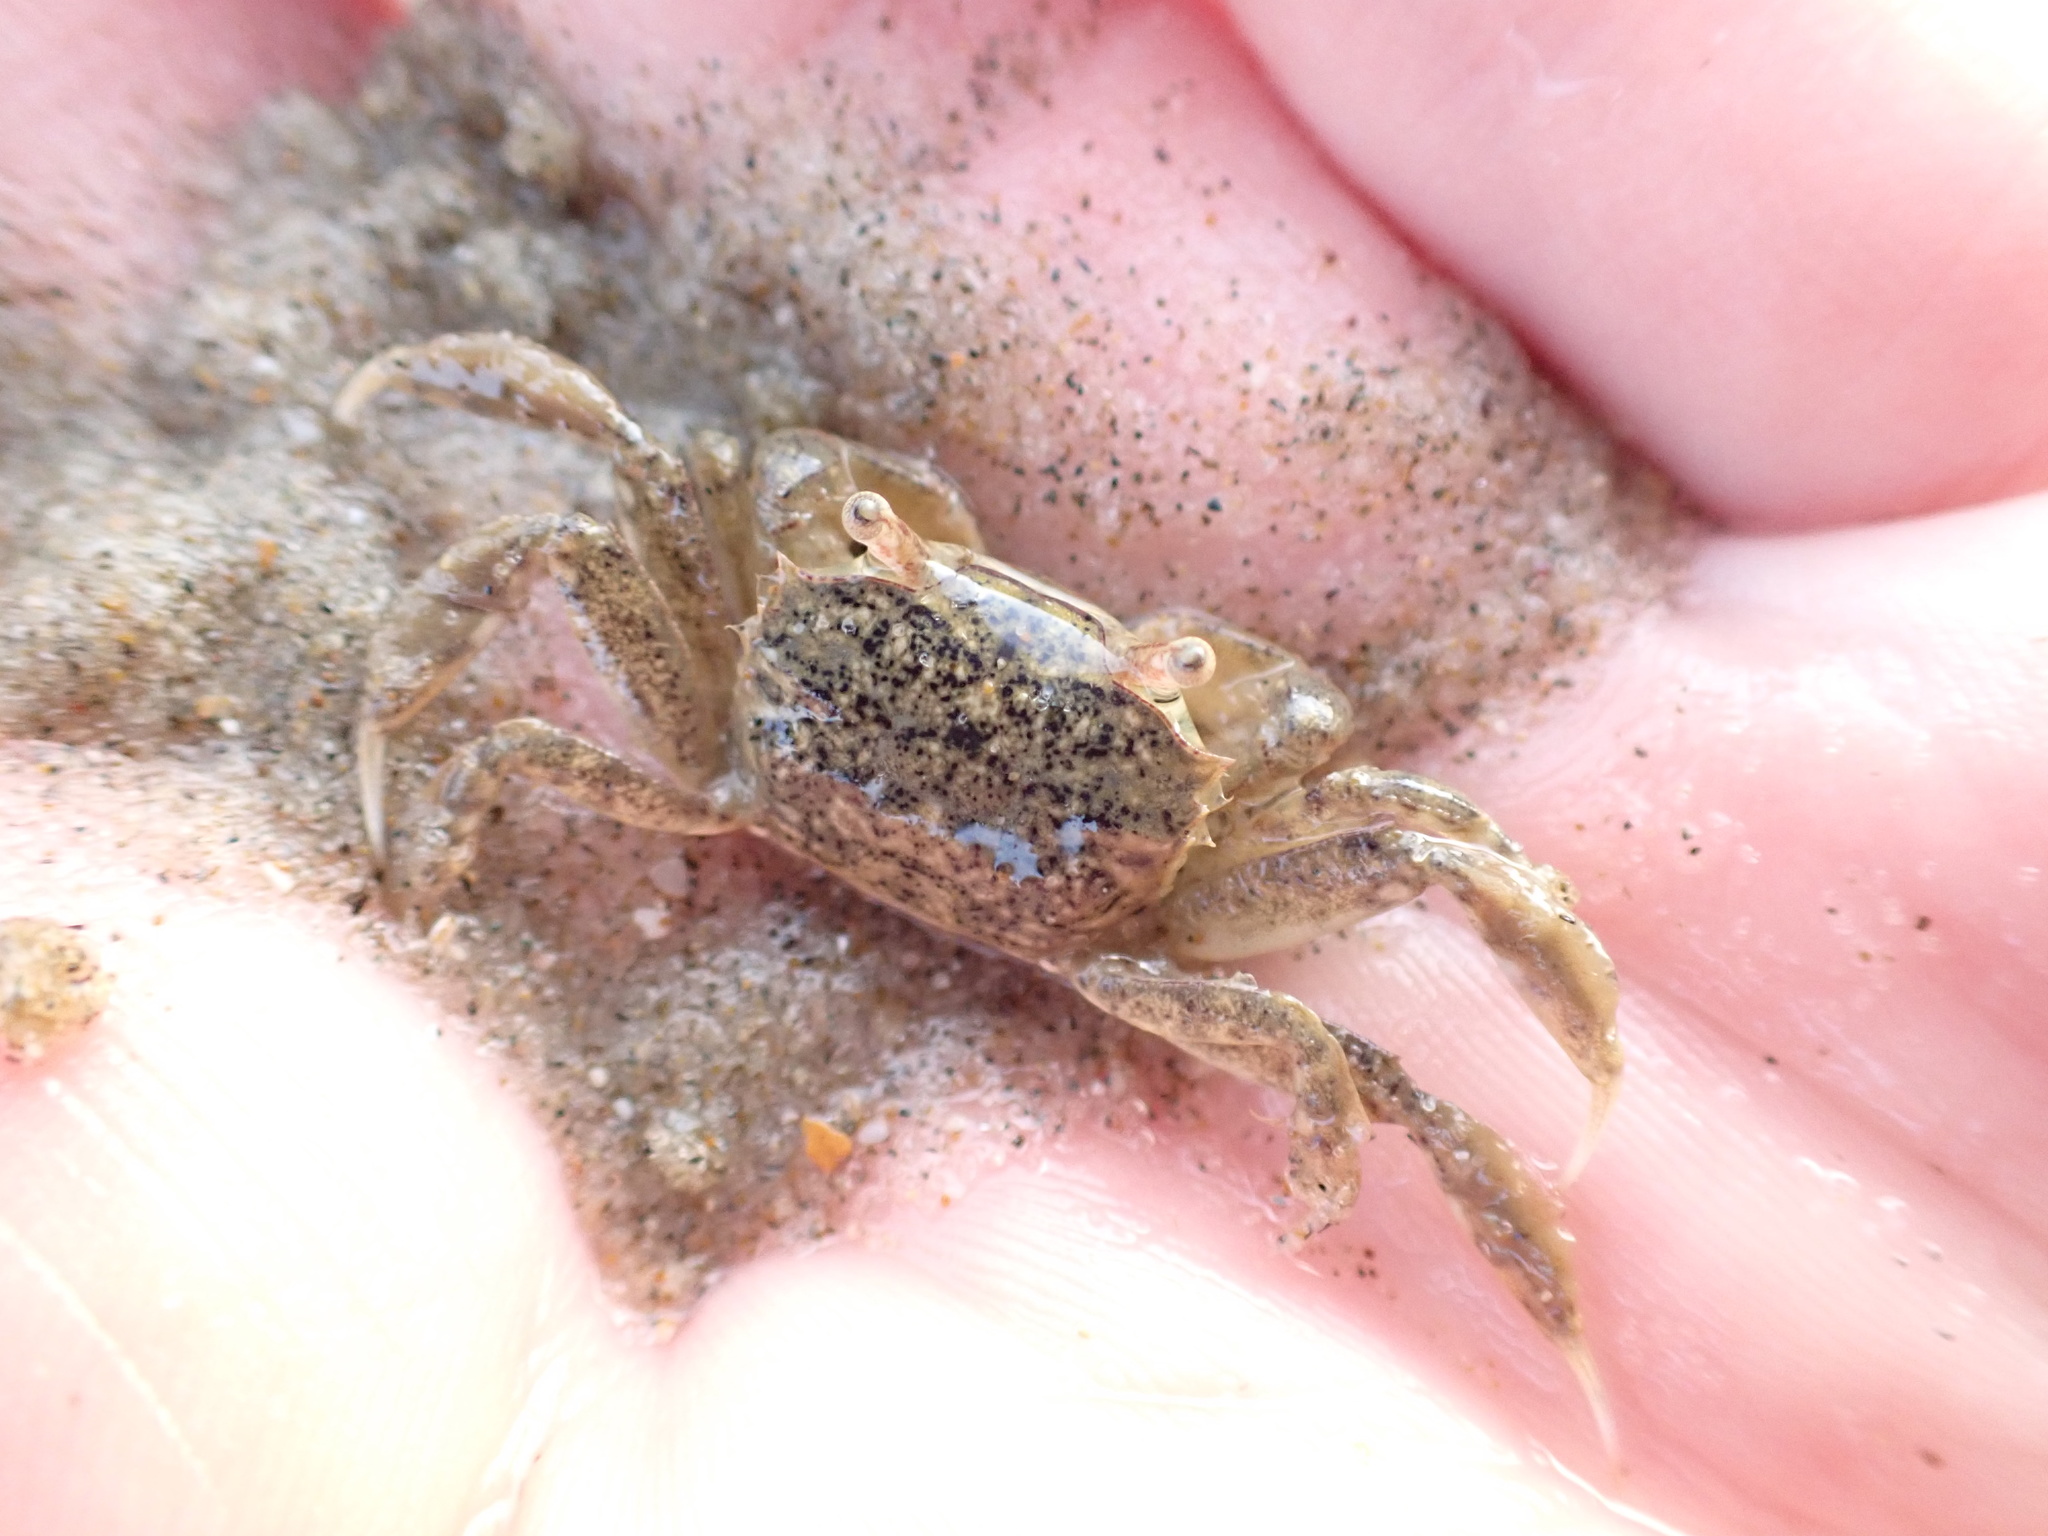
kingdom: Animalia
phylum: Arthropoda
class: Malacostraca
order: Decapoda
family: Varunidae
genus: Austrohelice
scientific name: Austrohelice crassa
